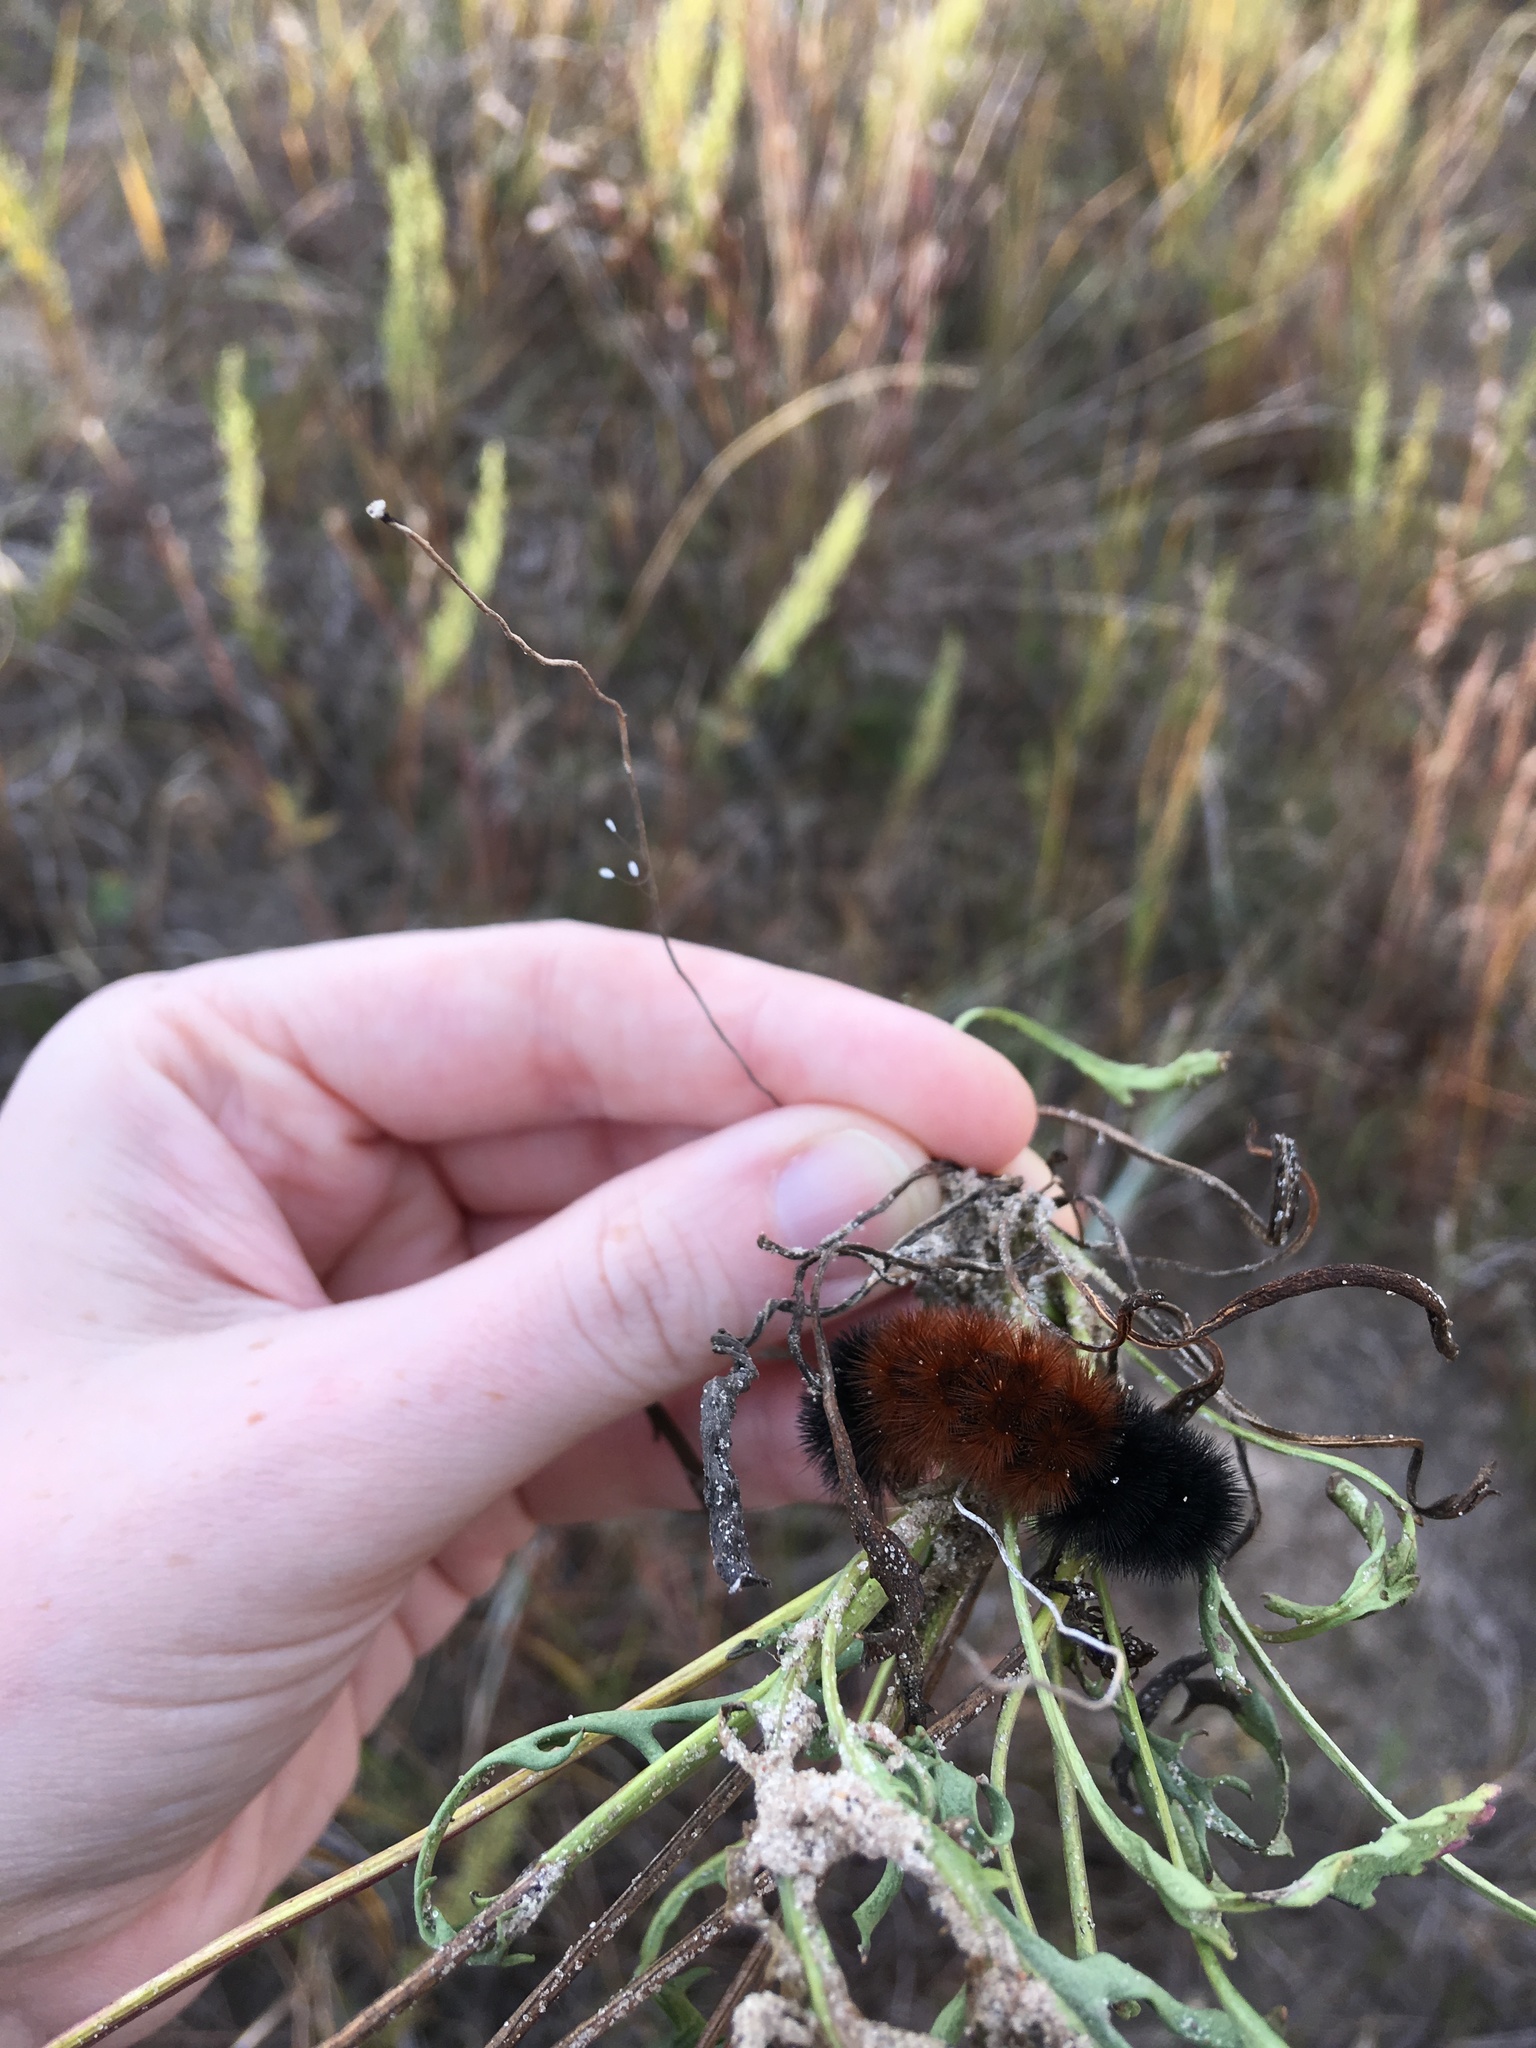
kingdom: Animalia
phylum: Arthropoda
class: Insecta
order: Lepidoptera
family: Erebidae
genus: Pyrrharctia
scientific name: Pyrrharctia isabella
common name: Isabella tiger moth
